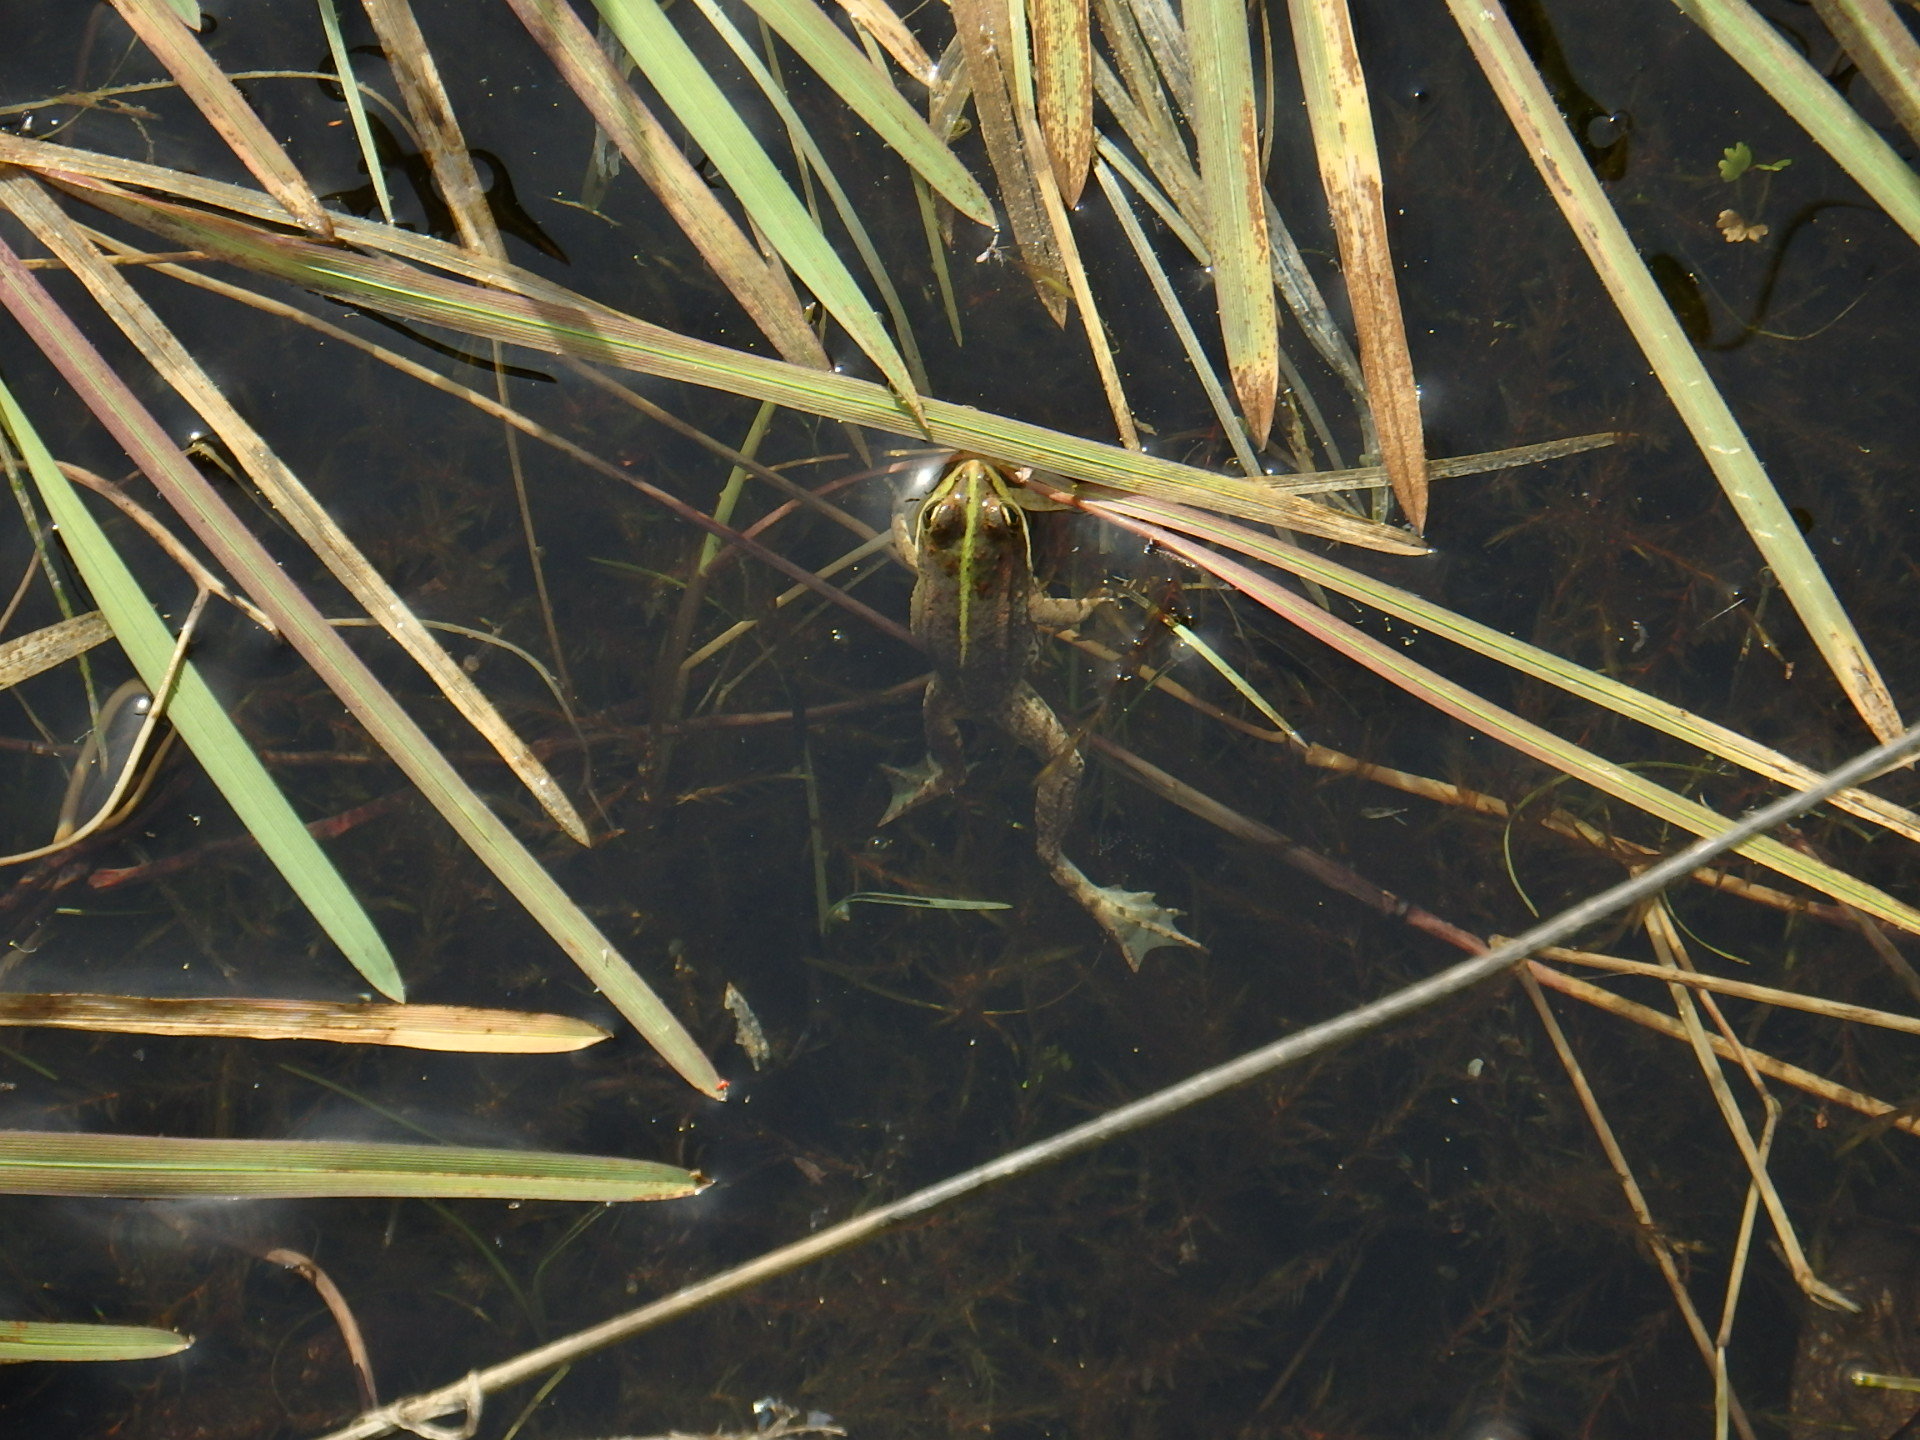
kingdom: Animalia
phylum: Chordata
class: Amphibia
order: Anura
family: Ranidae
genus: Pelophylax
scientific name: Pelophylax perezi
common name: Perez's frog
